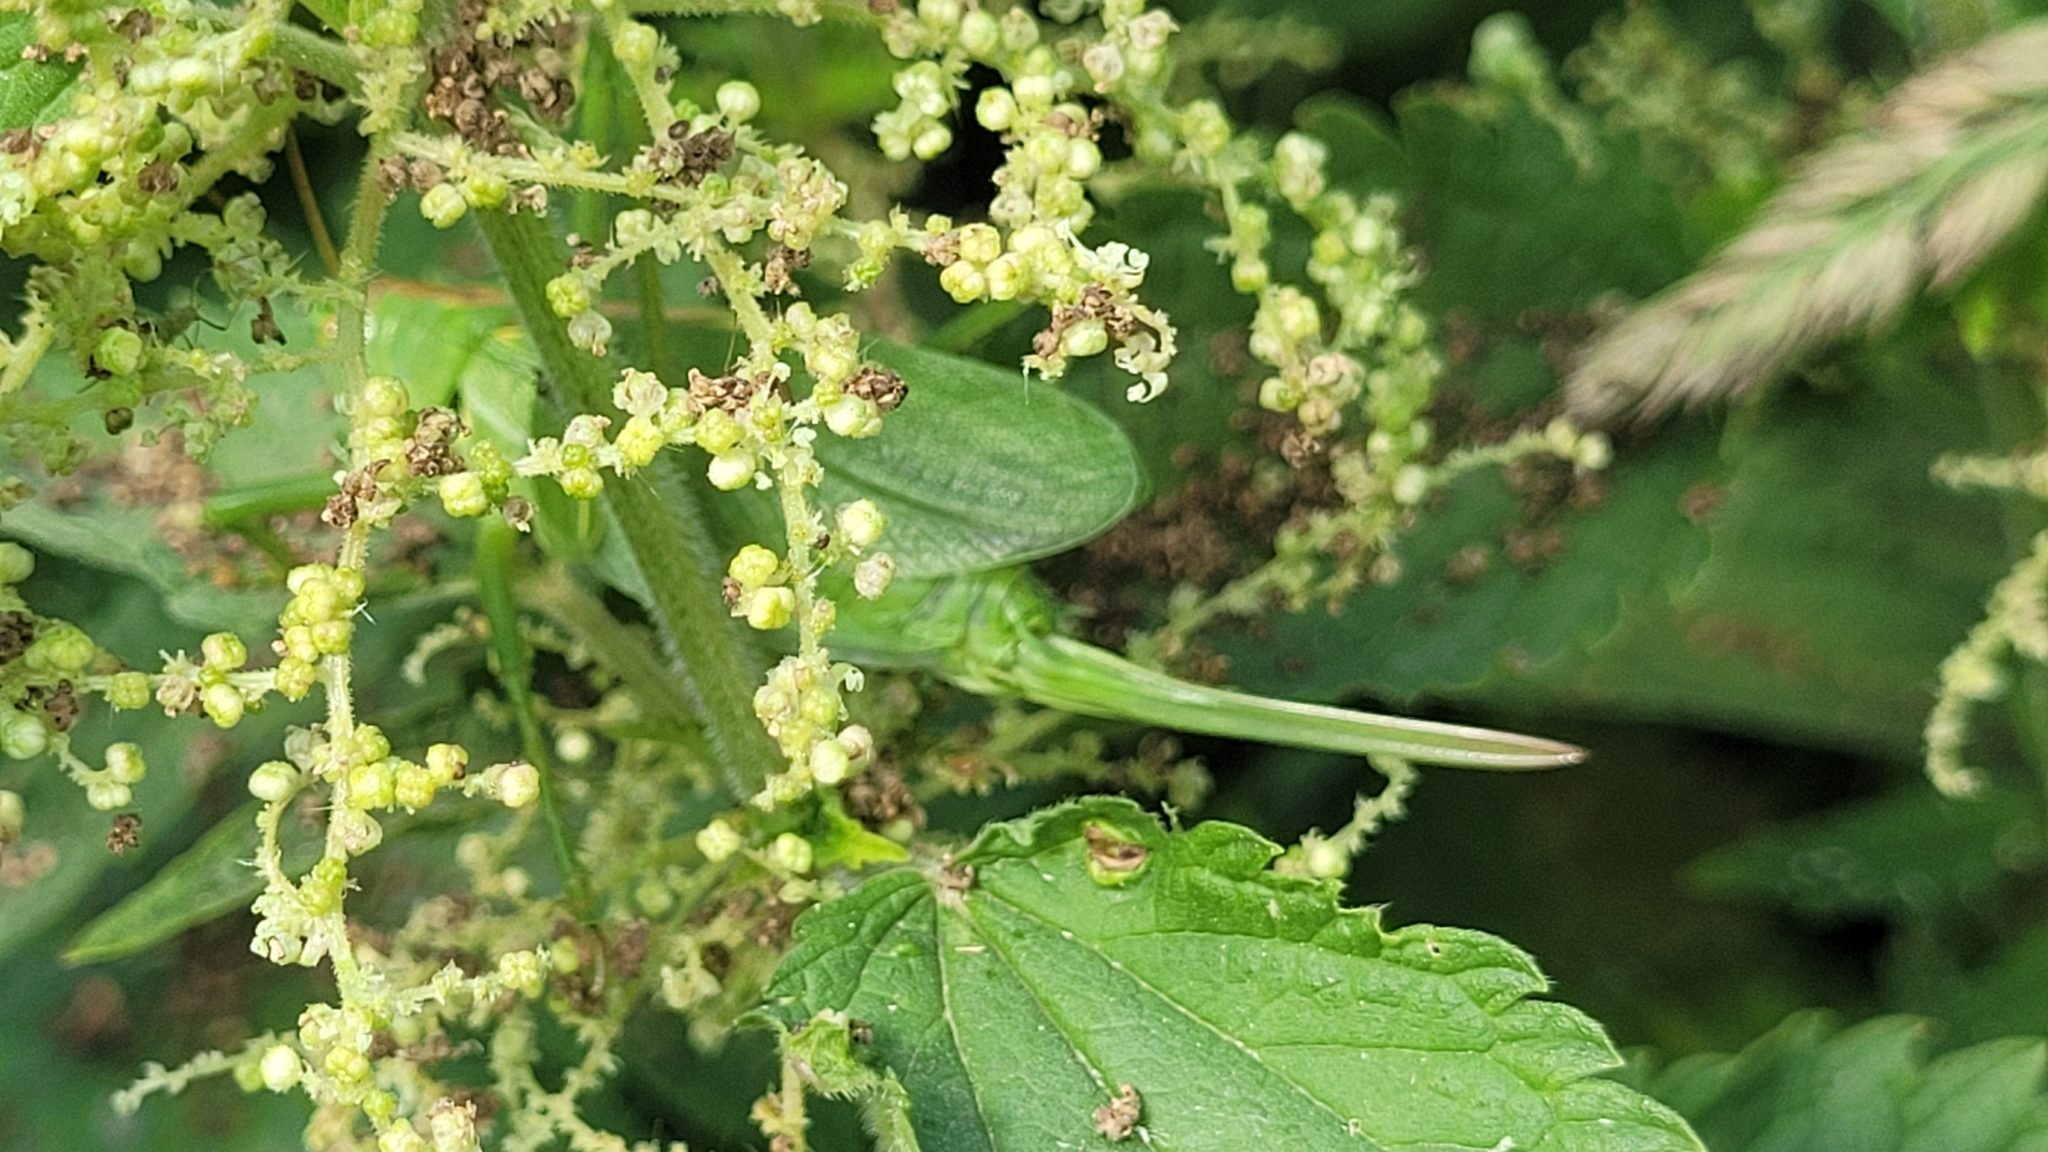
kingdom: Animalia
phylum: Arthropoda
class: Insecta
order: Orthoptera
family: Tettigoniidae
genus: Tettigonia
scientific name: Tettigonia cantans
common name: Upland green bush-cricket
